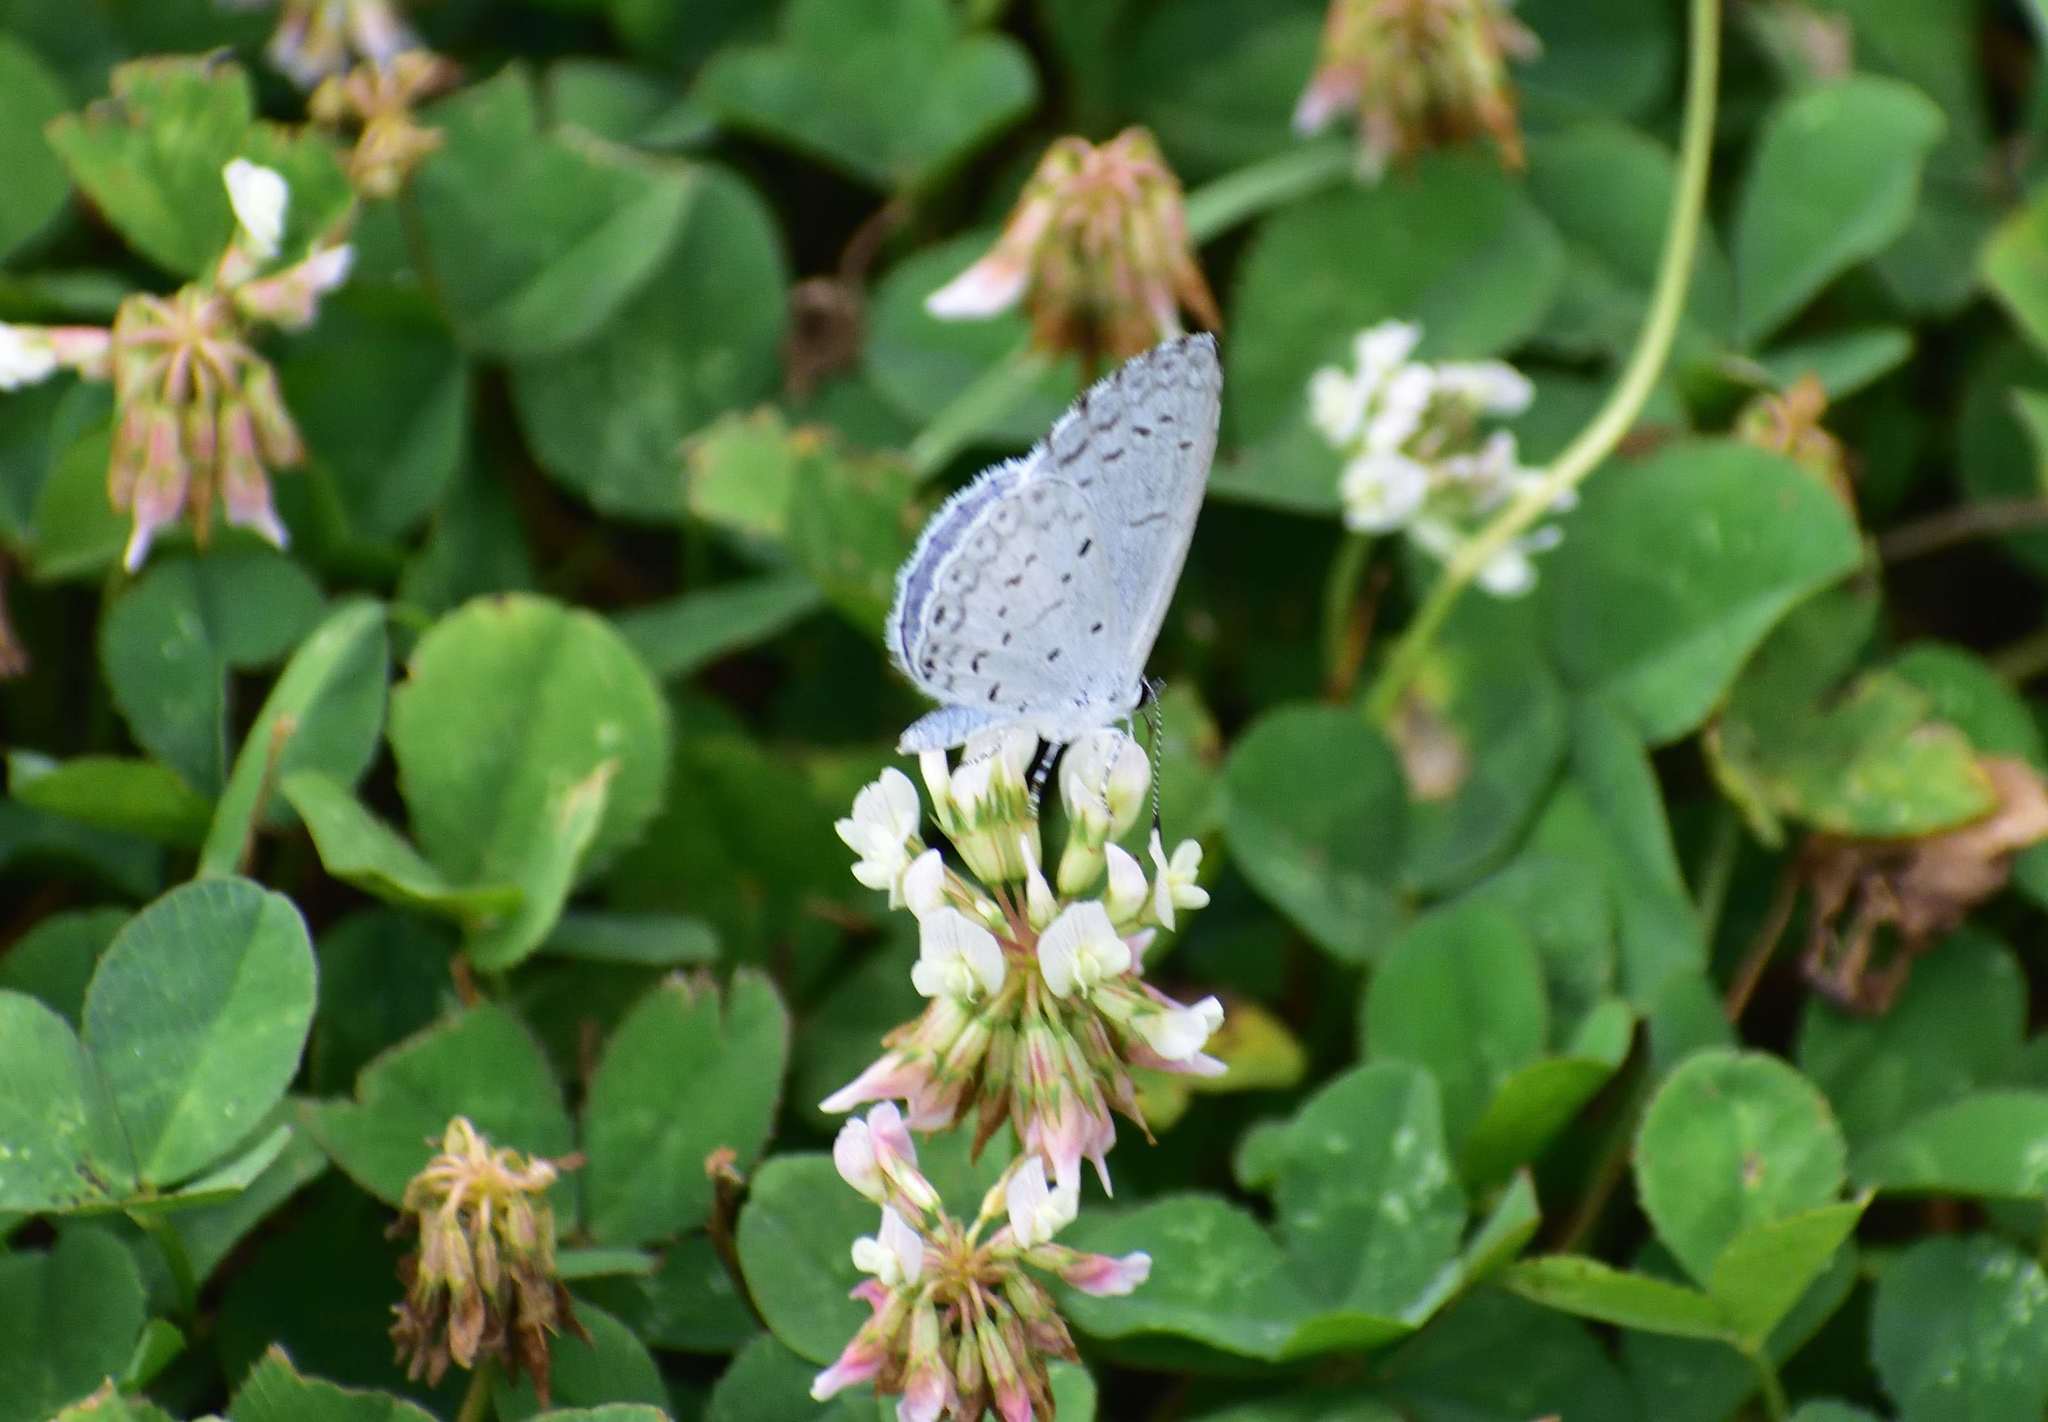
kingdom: Animalia
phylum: Arthropoda
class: Insecta
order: Lepidoptera
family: Lycaenidae
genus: Cyaniris
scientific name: Cyaniris neglecta
